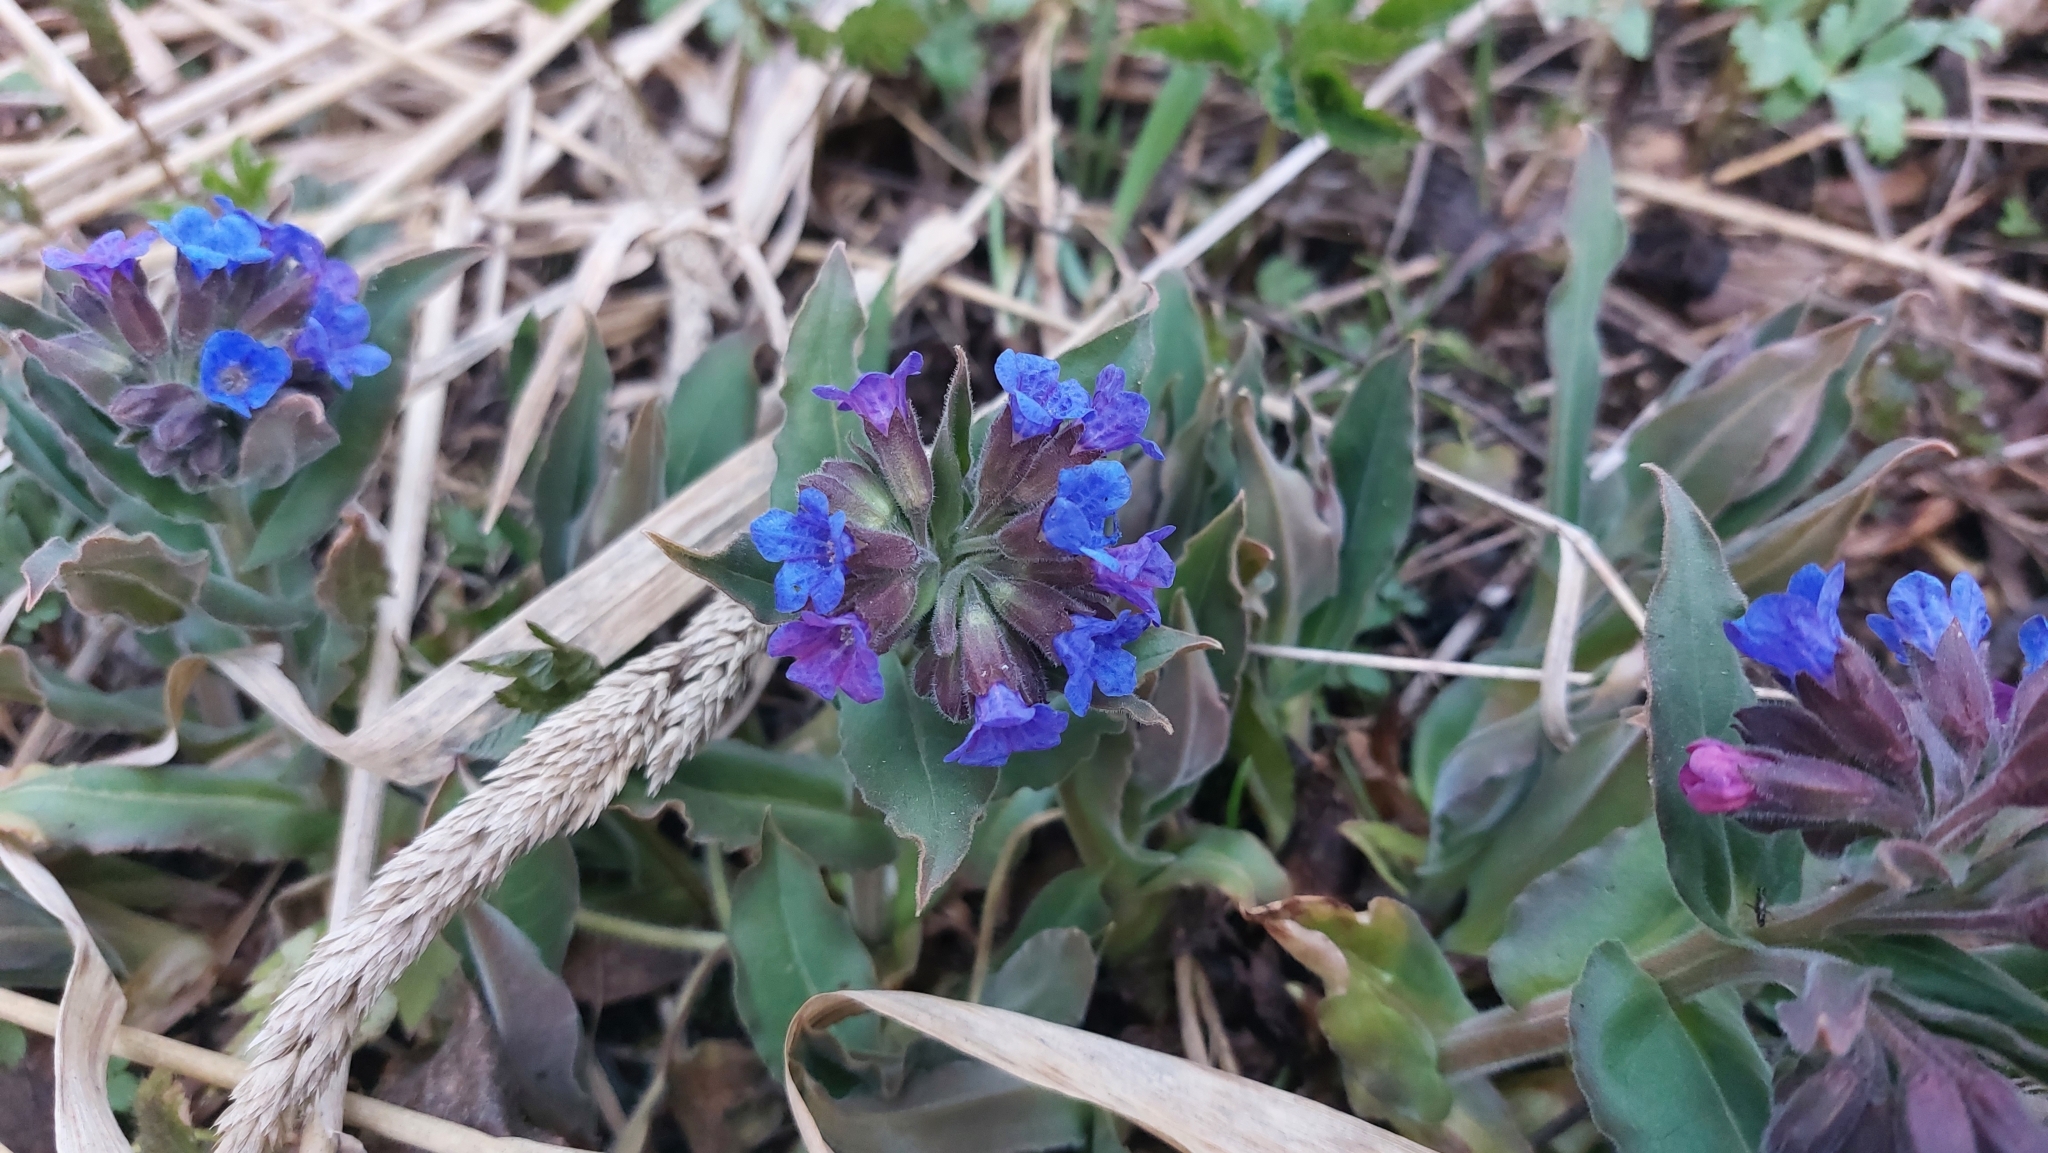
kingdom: Plantae
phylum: Tracheophyta
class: Magnoliopsida
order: Boraginales
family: Boraginaceae
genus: Pulmonaria
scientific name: Pulmonaria mollis
